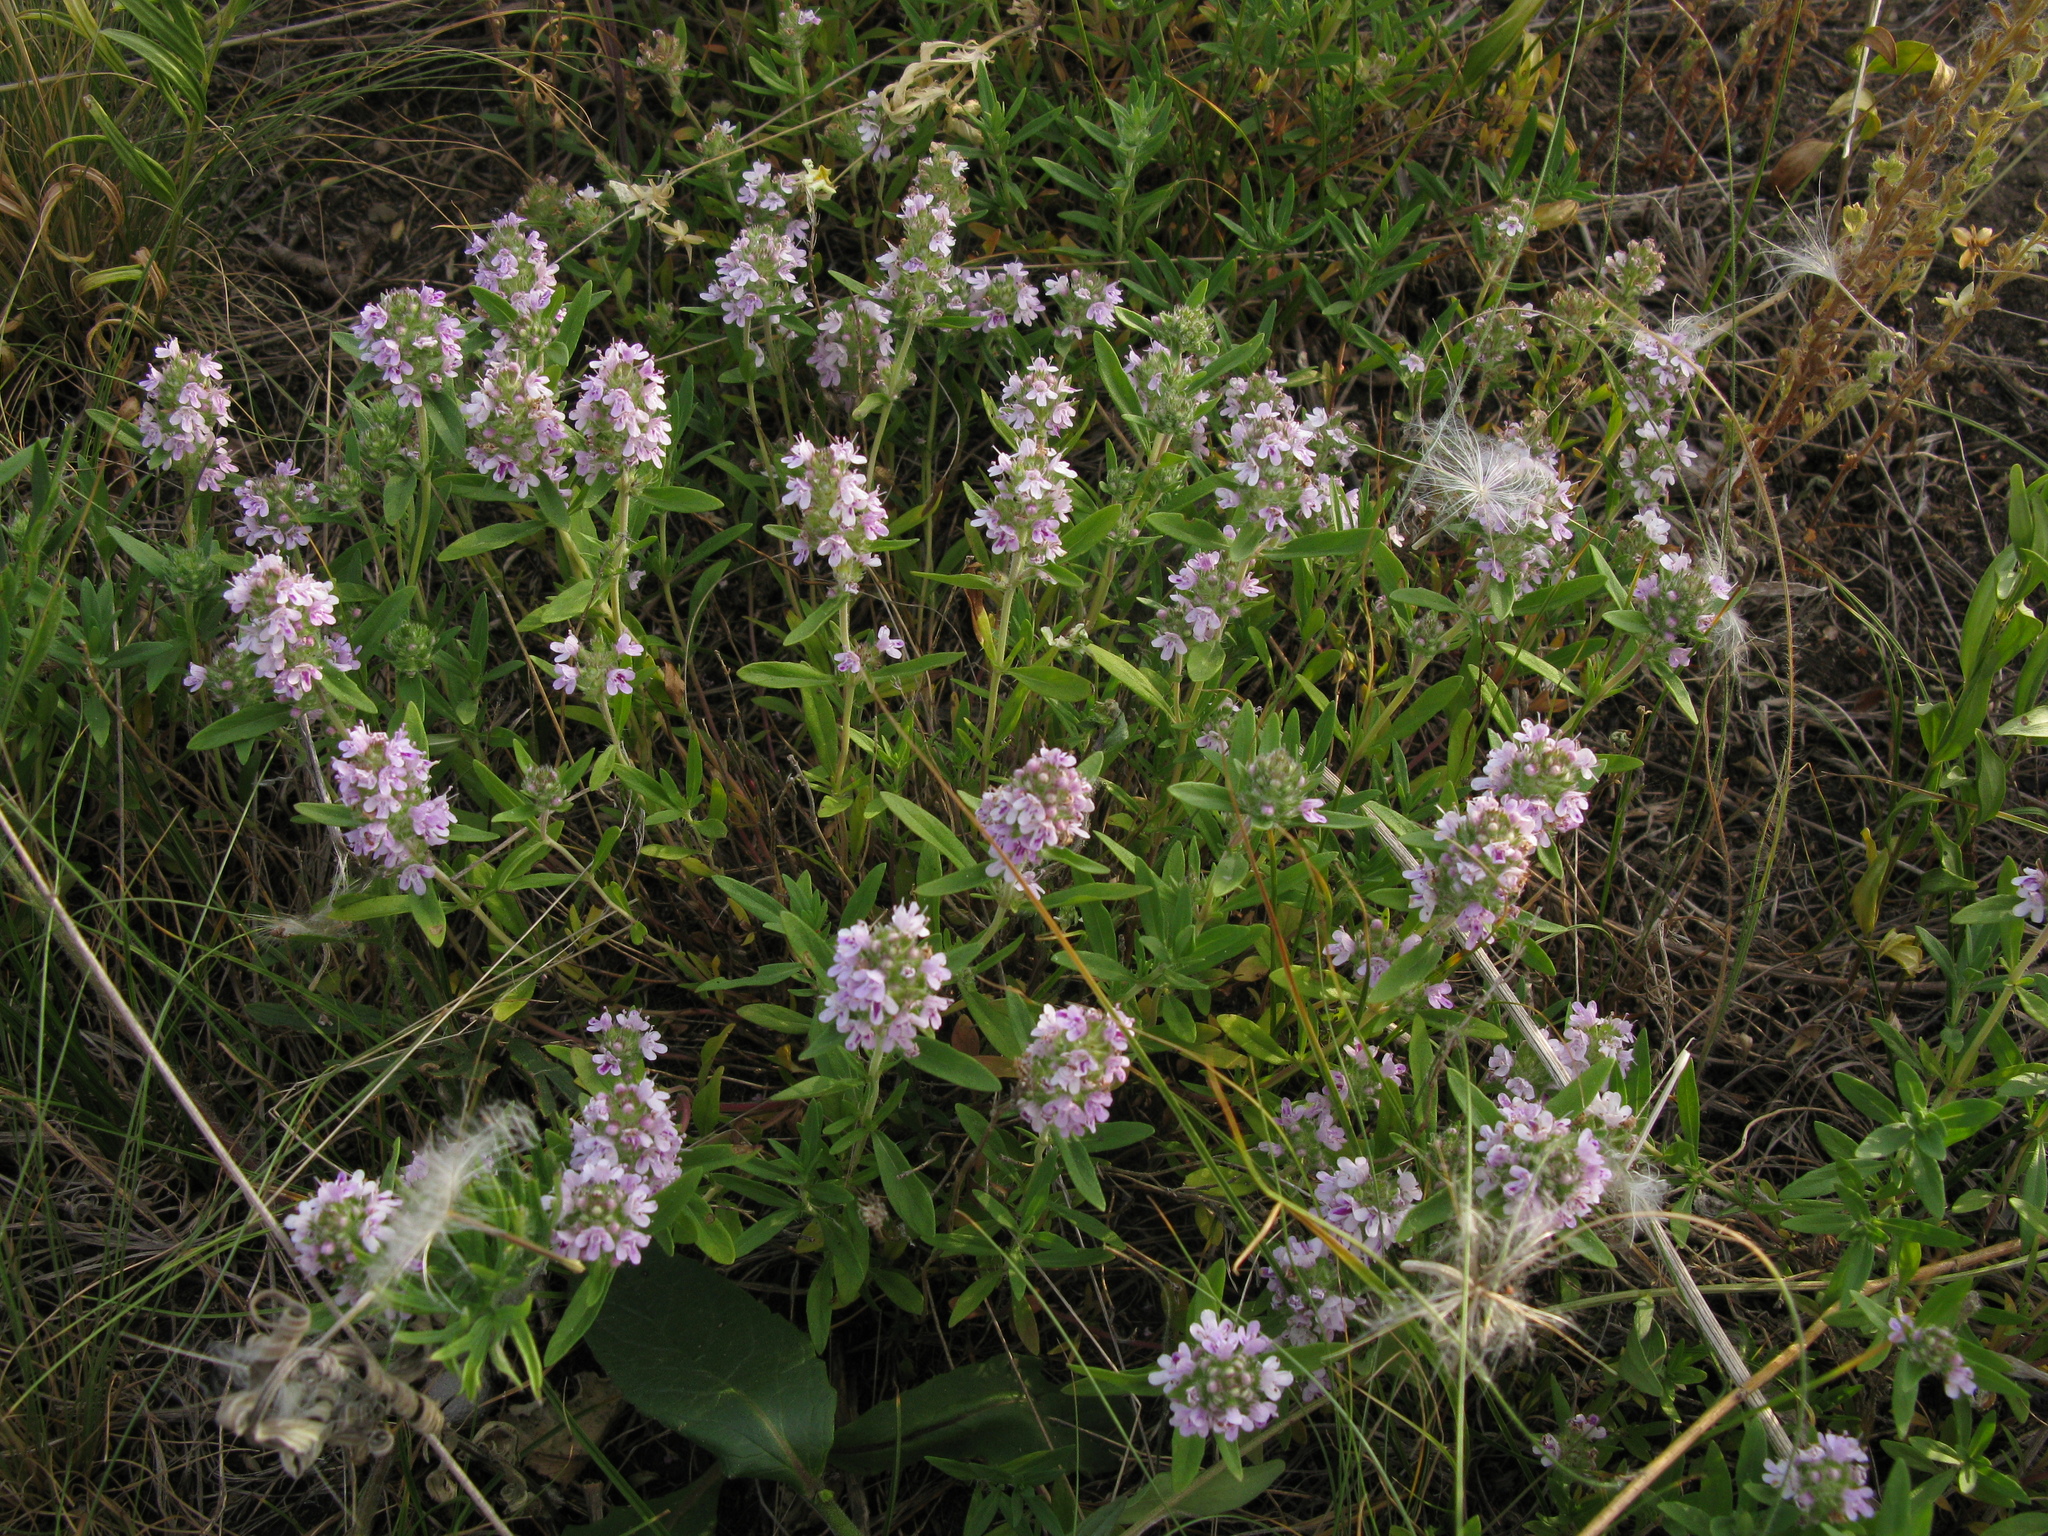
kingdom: Plantae
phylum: Tracheophyta
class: Magnoliopsida
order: Lamiales
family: Lamiaceae
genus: Thymus
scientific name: Thymus pannonicus
